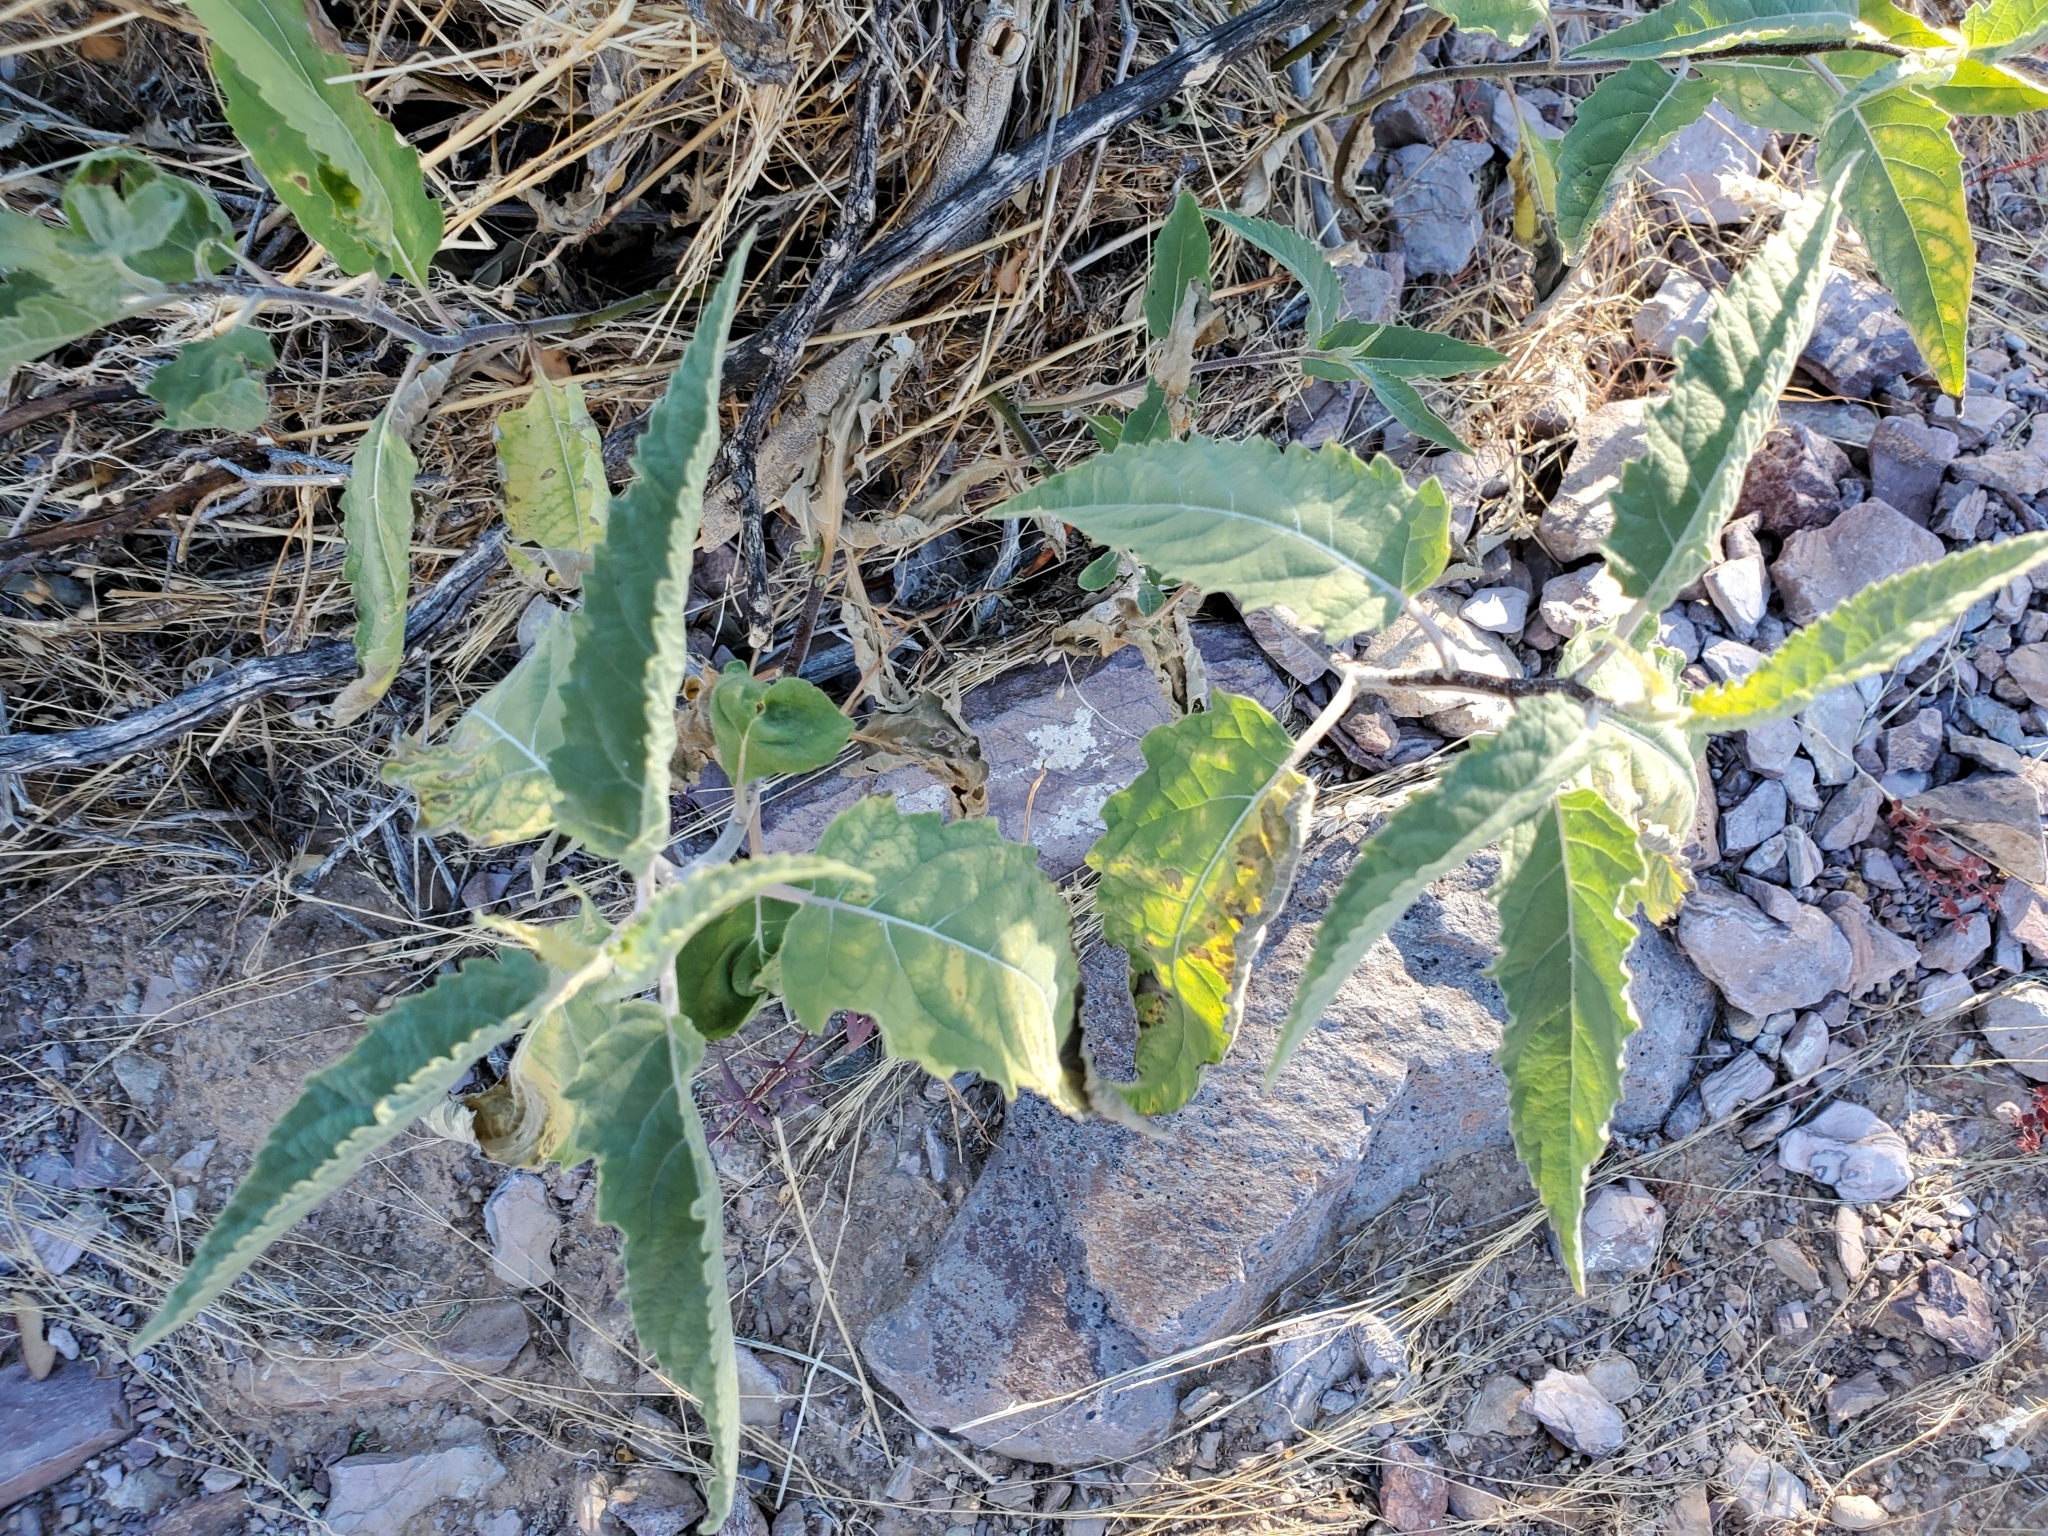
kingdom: Plantae
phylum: Tracheophyta
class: Magnoliopsida
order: Asterales
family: Asteraceae
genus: Ambrosia
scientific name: Ambrosia ambrosioides
